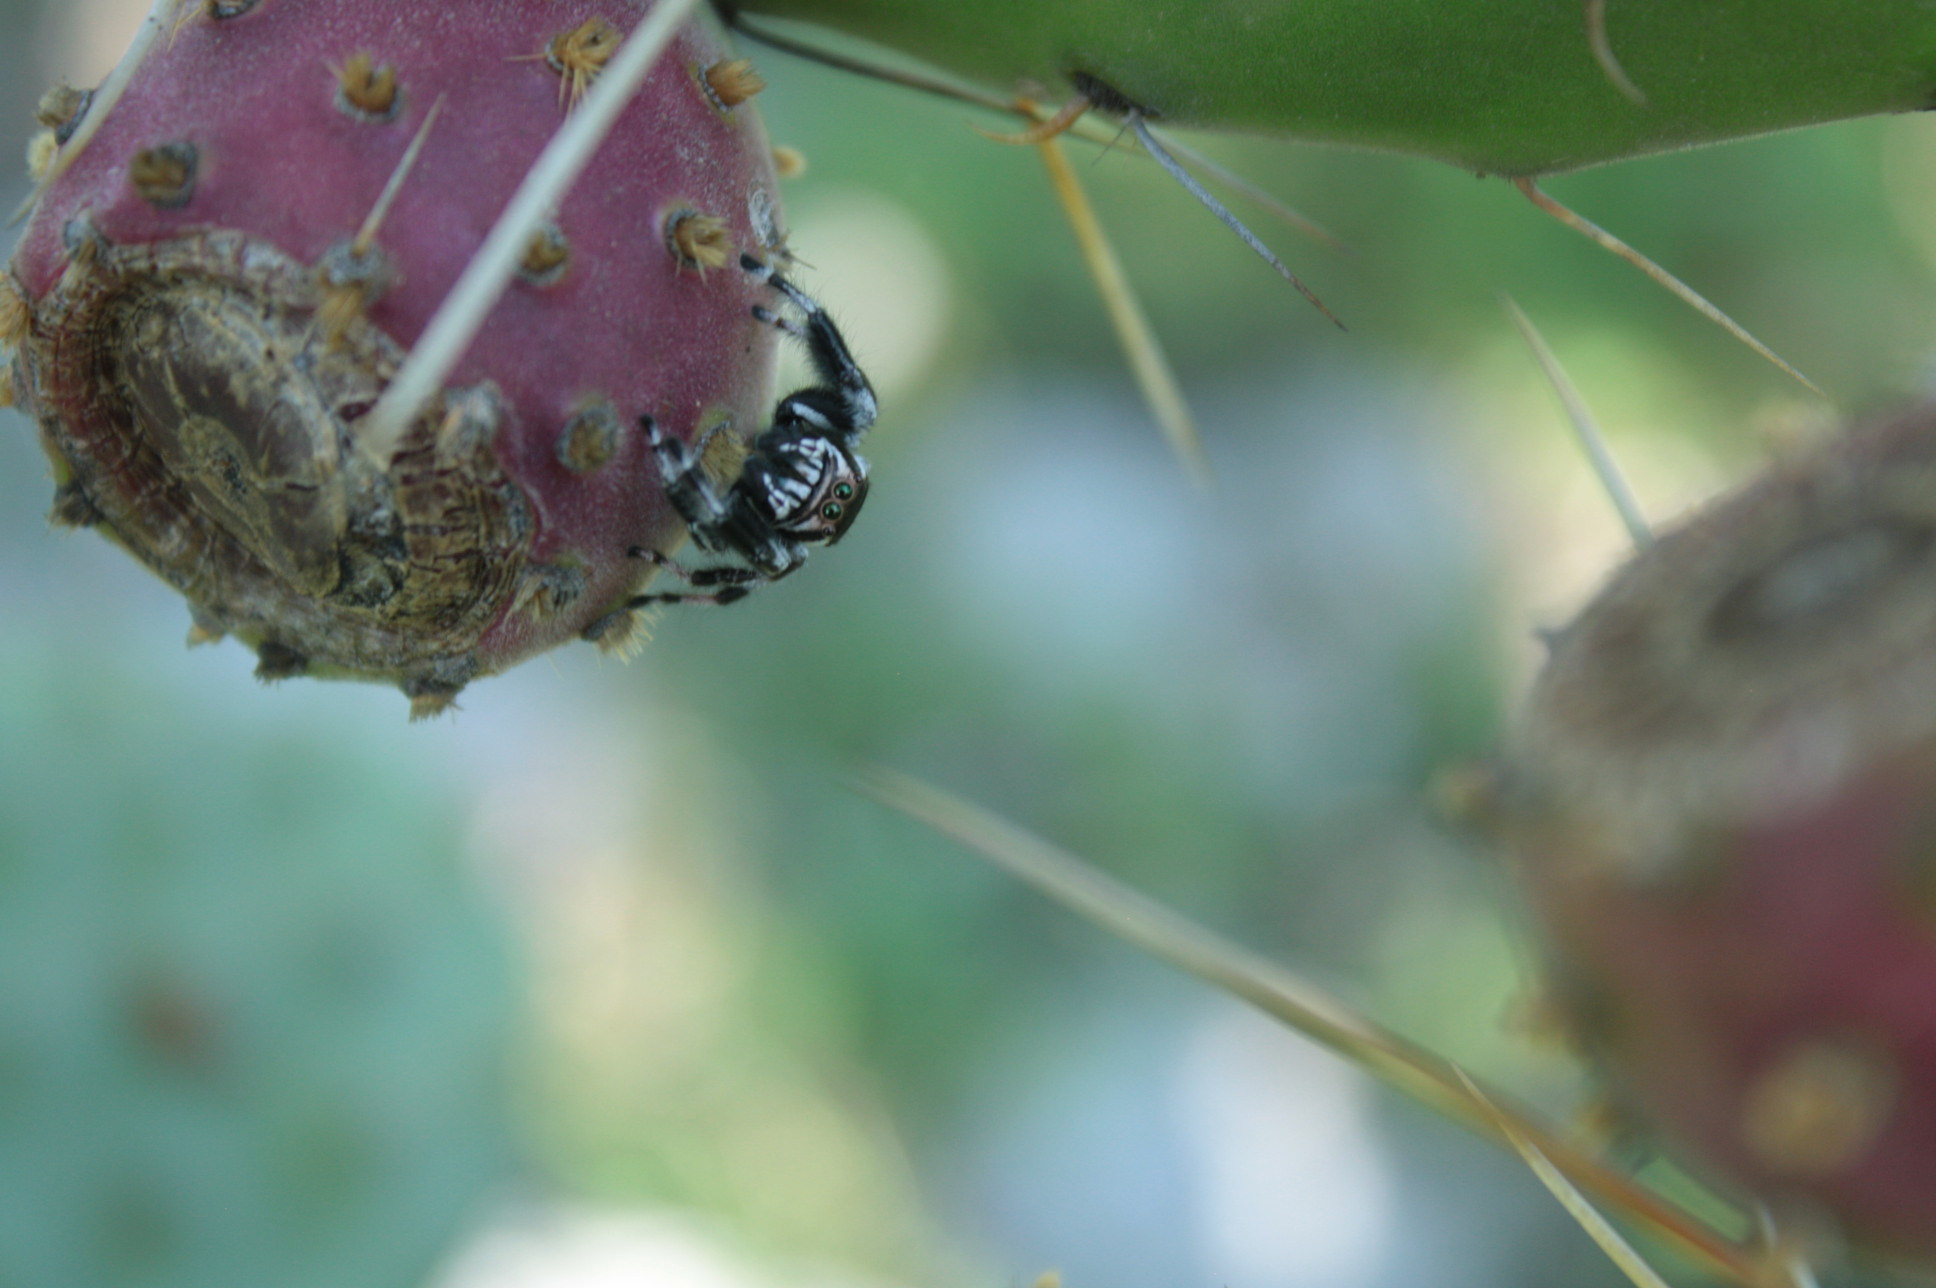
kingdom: Animalia
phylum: Arthropoda
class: Arachnida
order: Araneae
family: Salticidae
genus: Phidippus
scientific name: Phidippus albulatus
